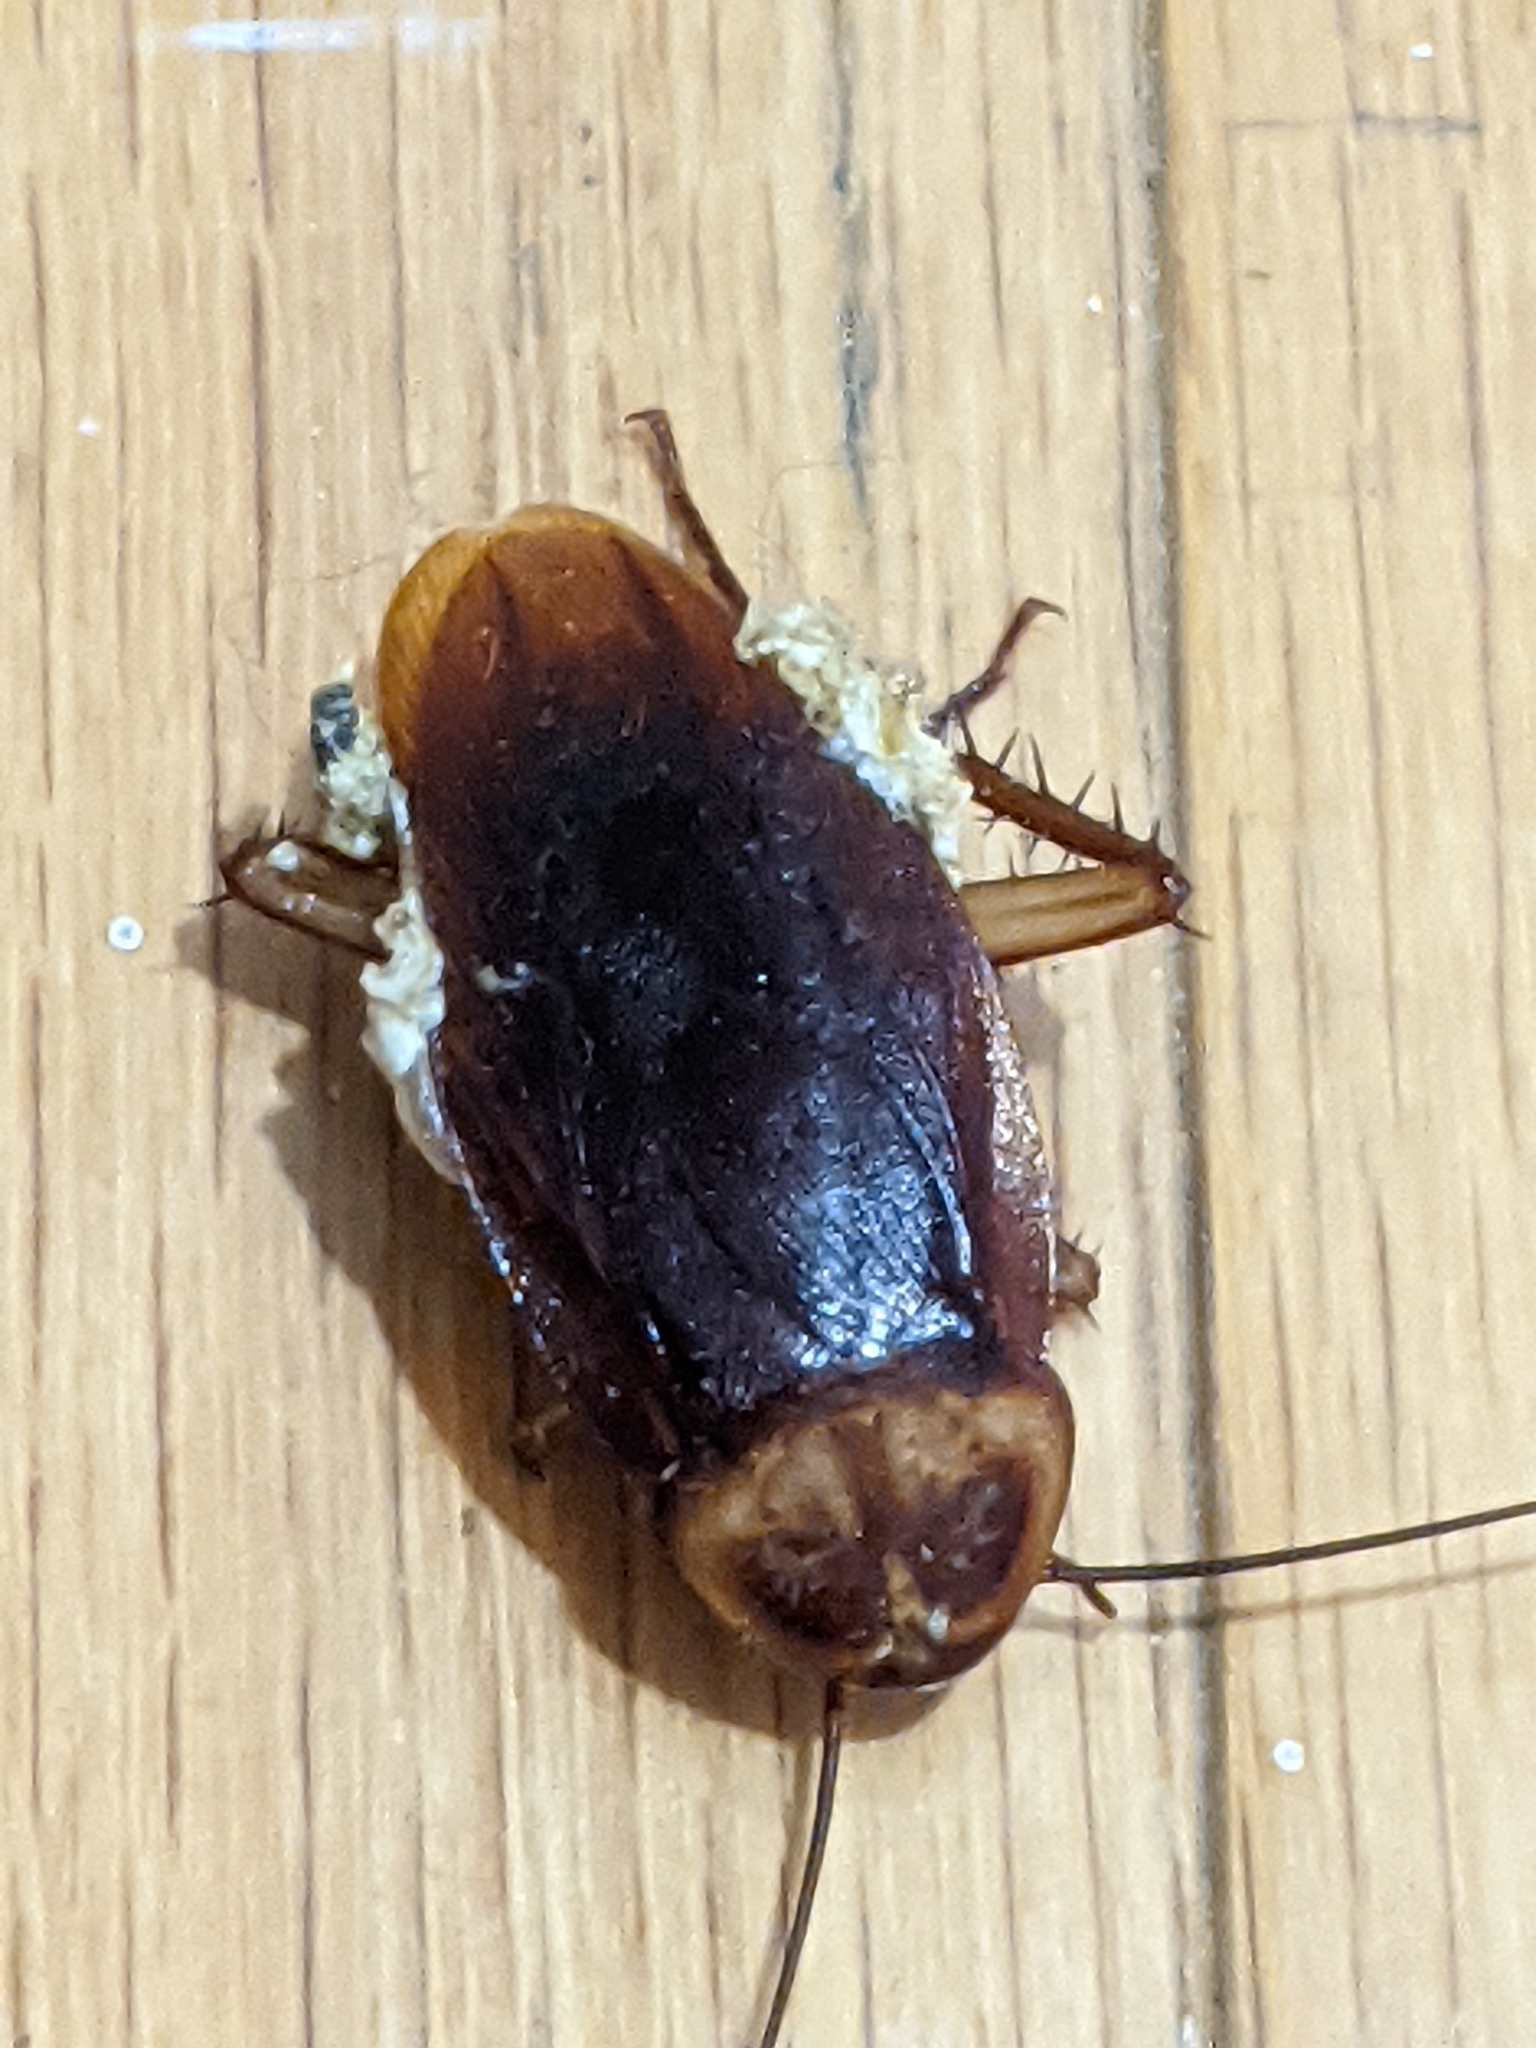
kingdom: Animalia
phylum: Arthropoda
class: Insecta
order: Blattodea
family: Blattidae
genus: Periplaneta
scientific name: Periplaneta americana
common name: American cockroach
